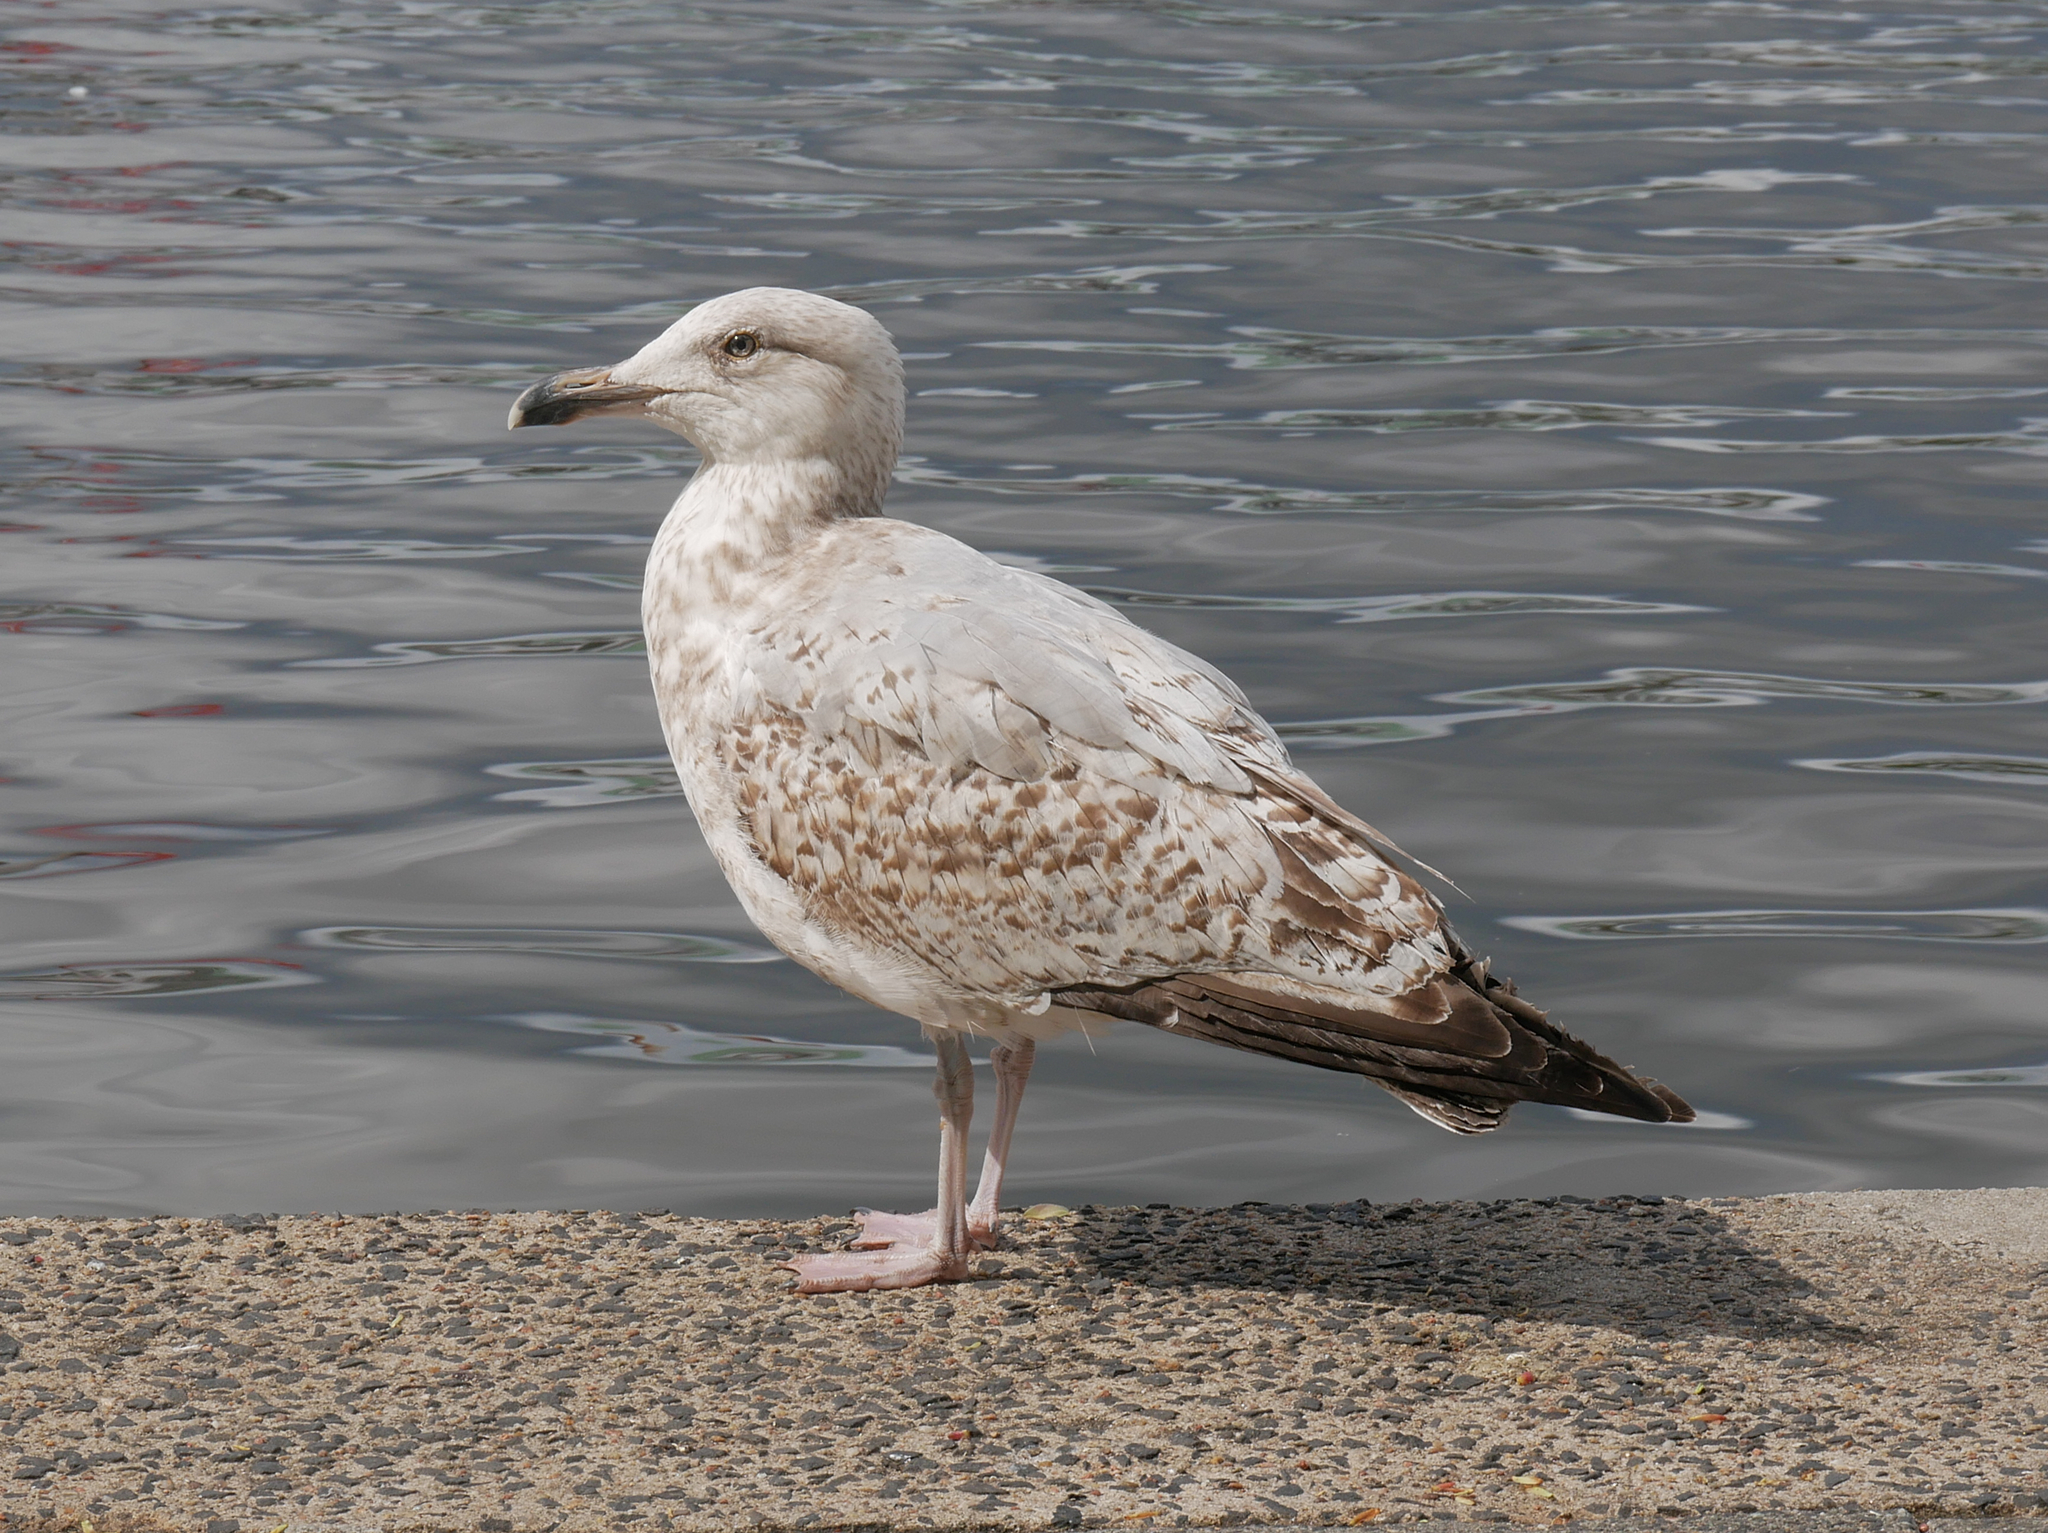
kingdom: Animalia
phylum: Chordata
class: Aves
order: Charadriiformes
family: Laridae
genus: Larus
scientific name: Larus argentatus
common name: Herring gull
